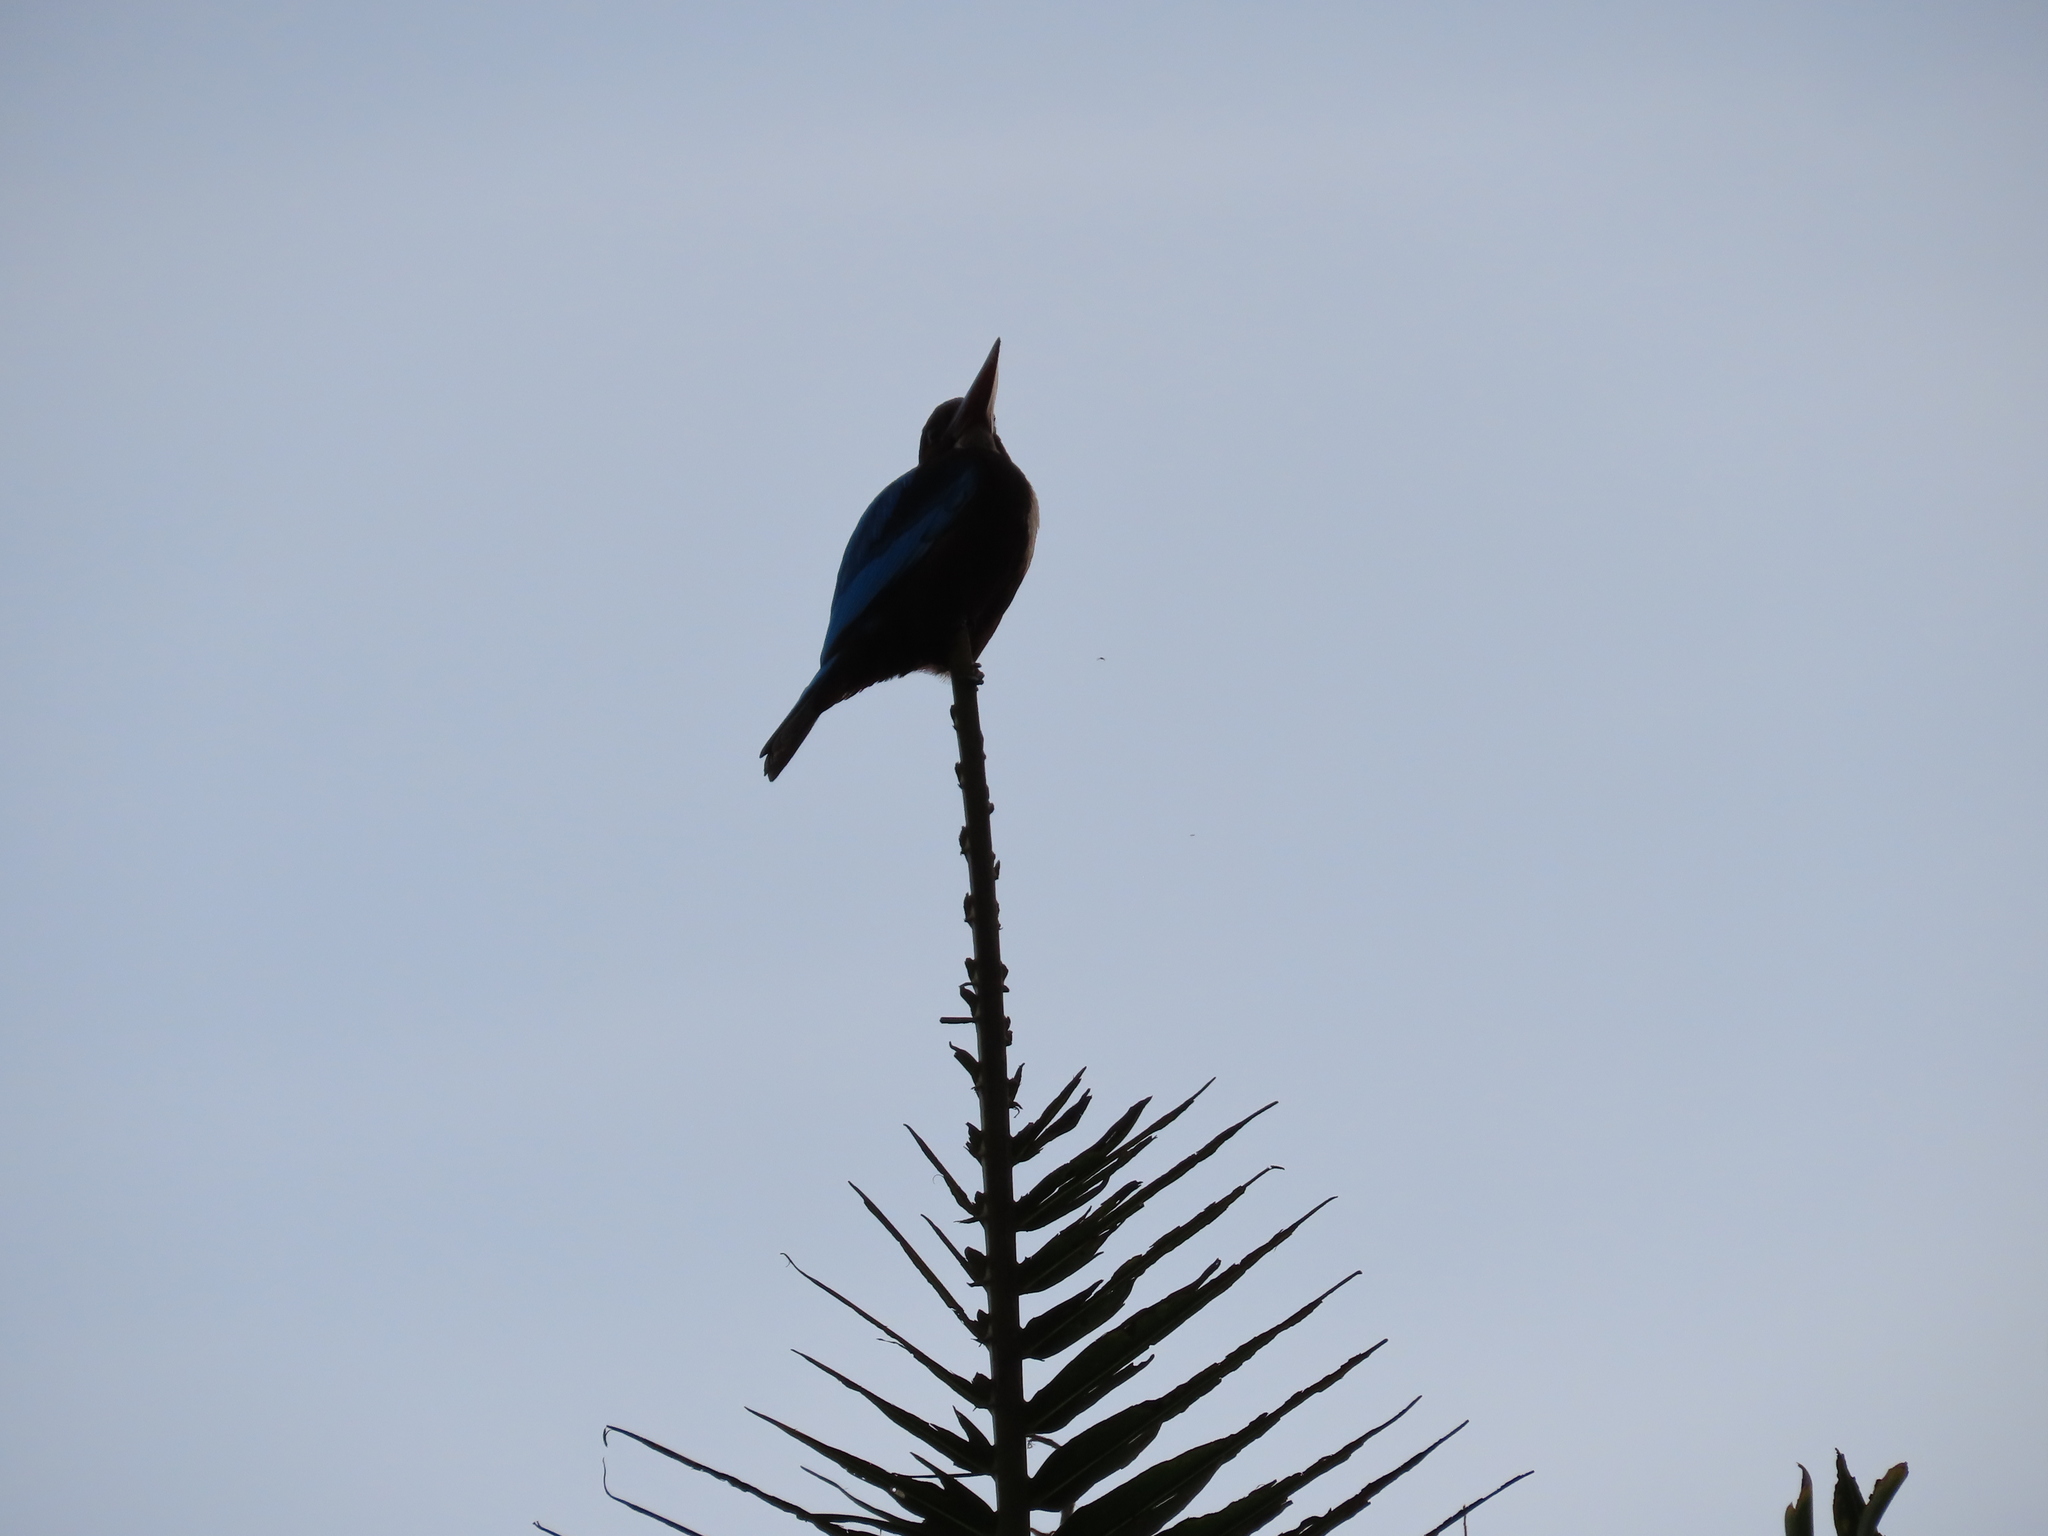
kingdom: Animalia
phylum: Chordata
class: Aves
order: Coraciiformes
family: Alcedinidae
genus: Halcyon
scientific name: Halcyon smyrnensis
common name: White-throated kingfisher
